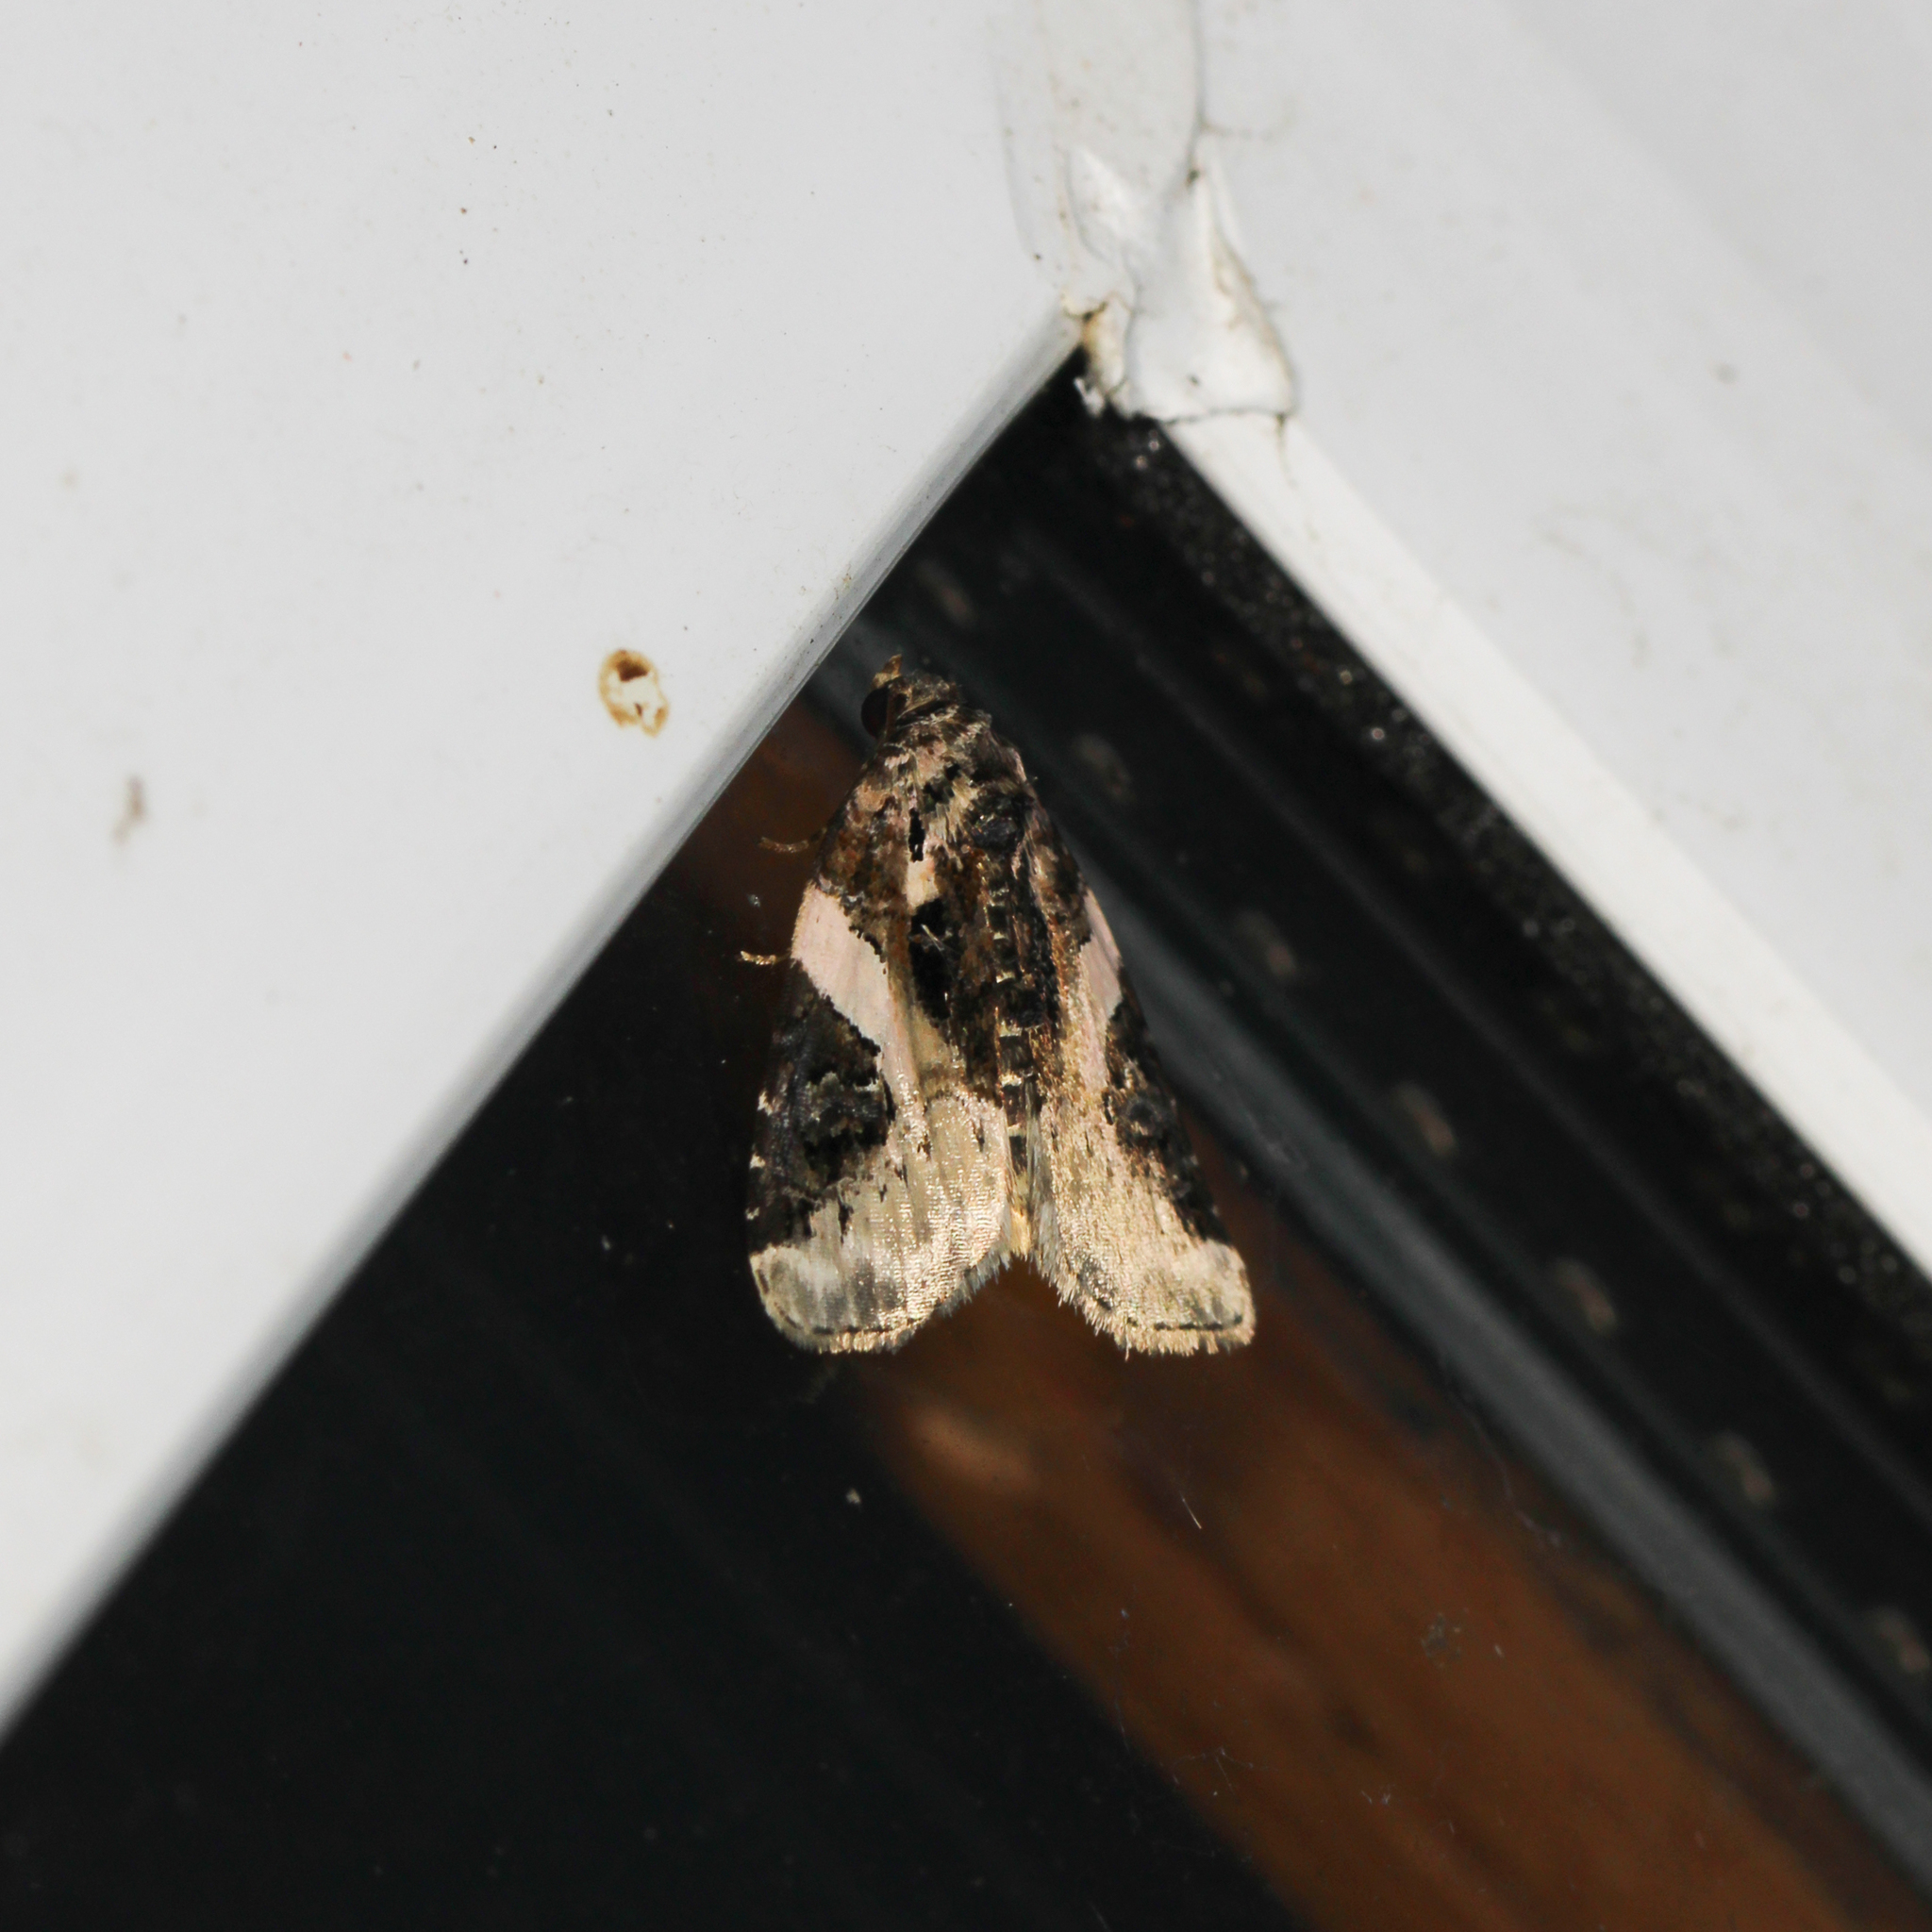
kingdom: Animalia
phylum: Arthropoda
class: Insecta
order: Lepidoptera
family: Noctuidae
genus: Pseudeustrotia
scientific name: Pseudeustrotia carneola
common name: Pink-barred lithacodia moth
